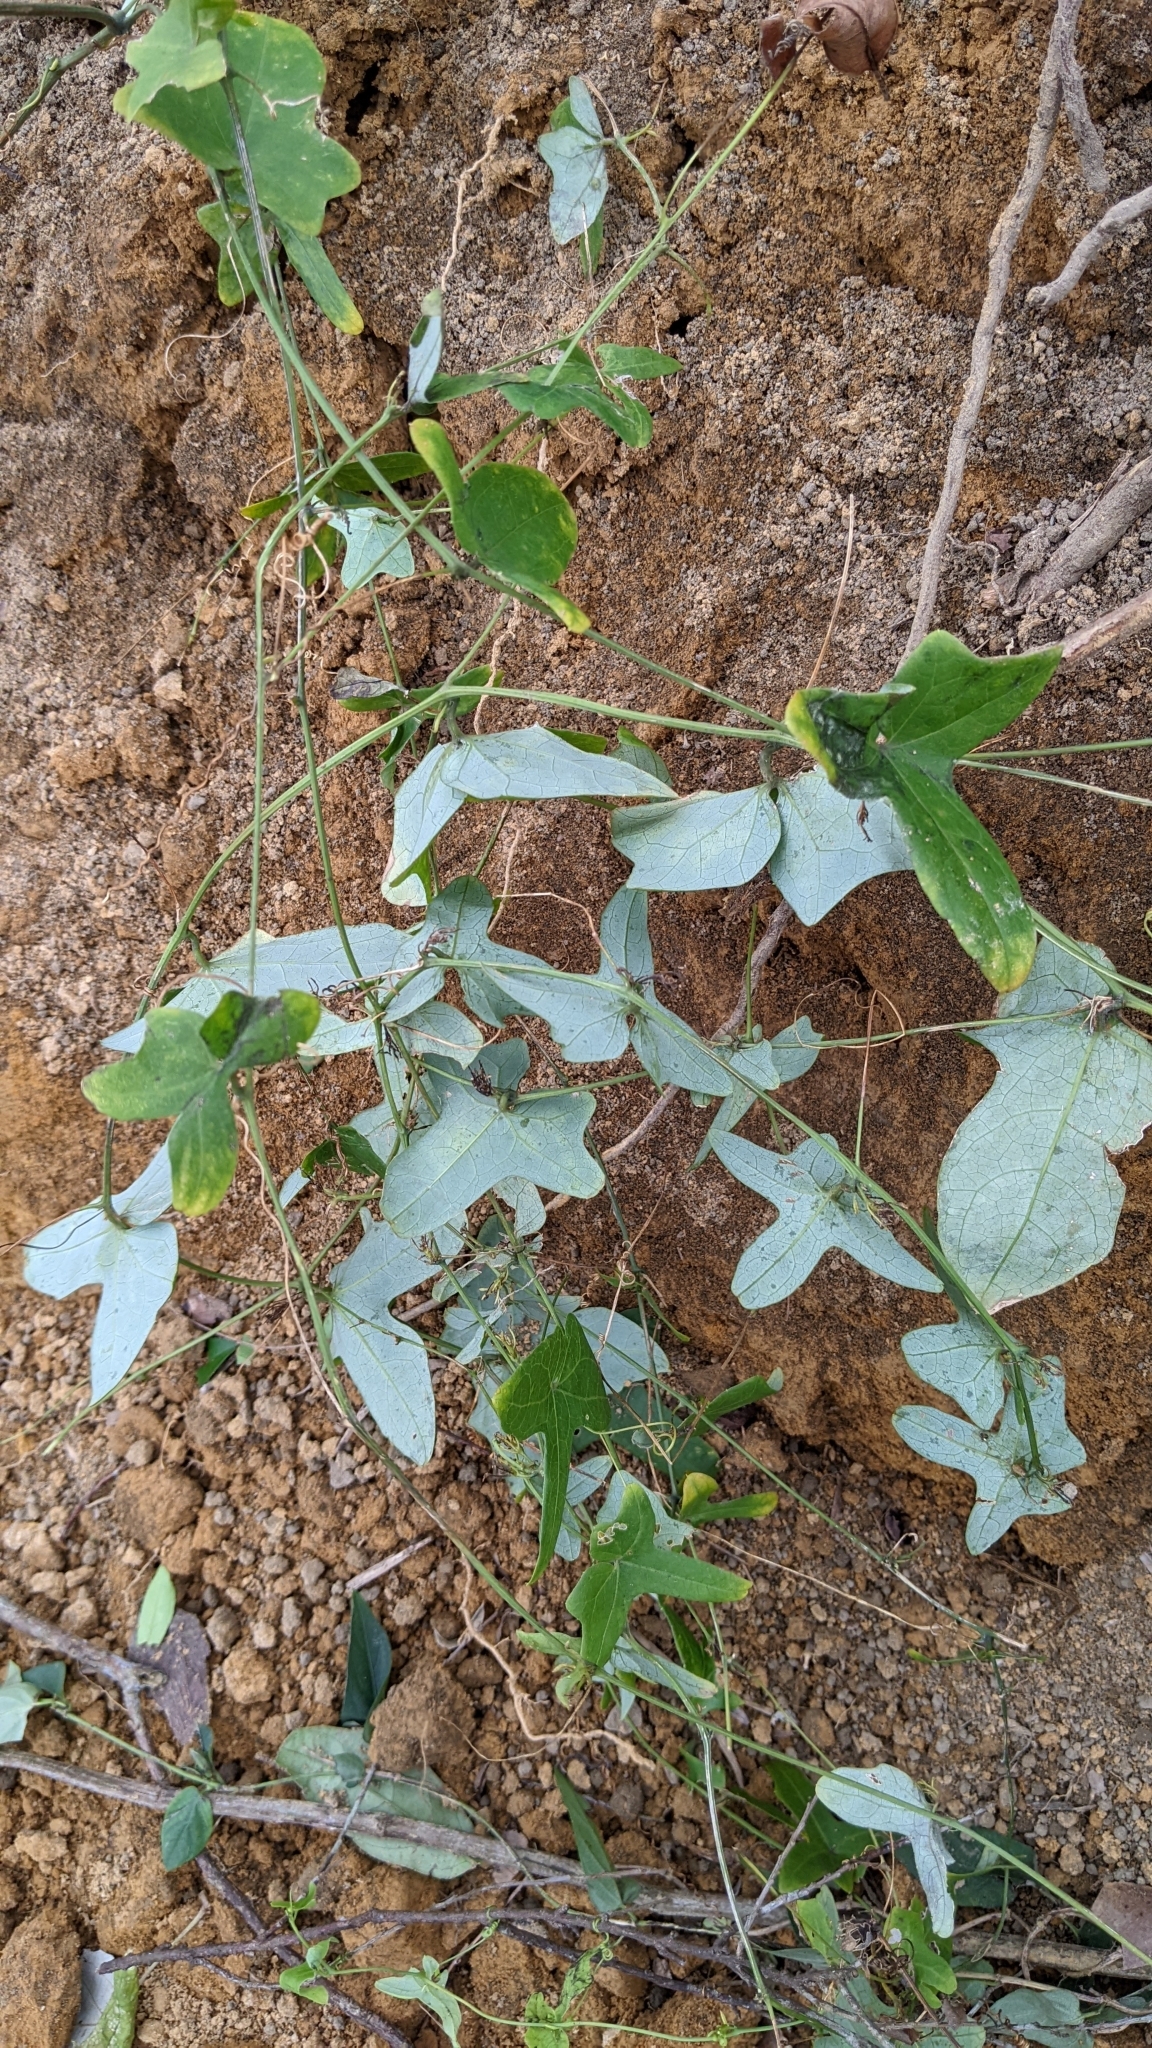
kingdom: Plantae
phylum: Tracheophyta
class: Magnoliopsida
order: Cucurbitales
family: Cucurbitaceae
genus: Solena
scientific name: Solena amplexicaulis
